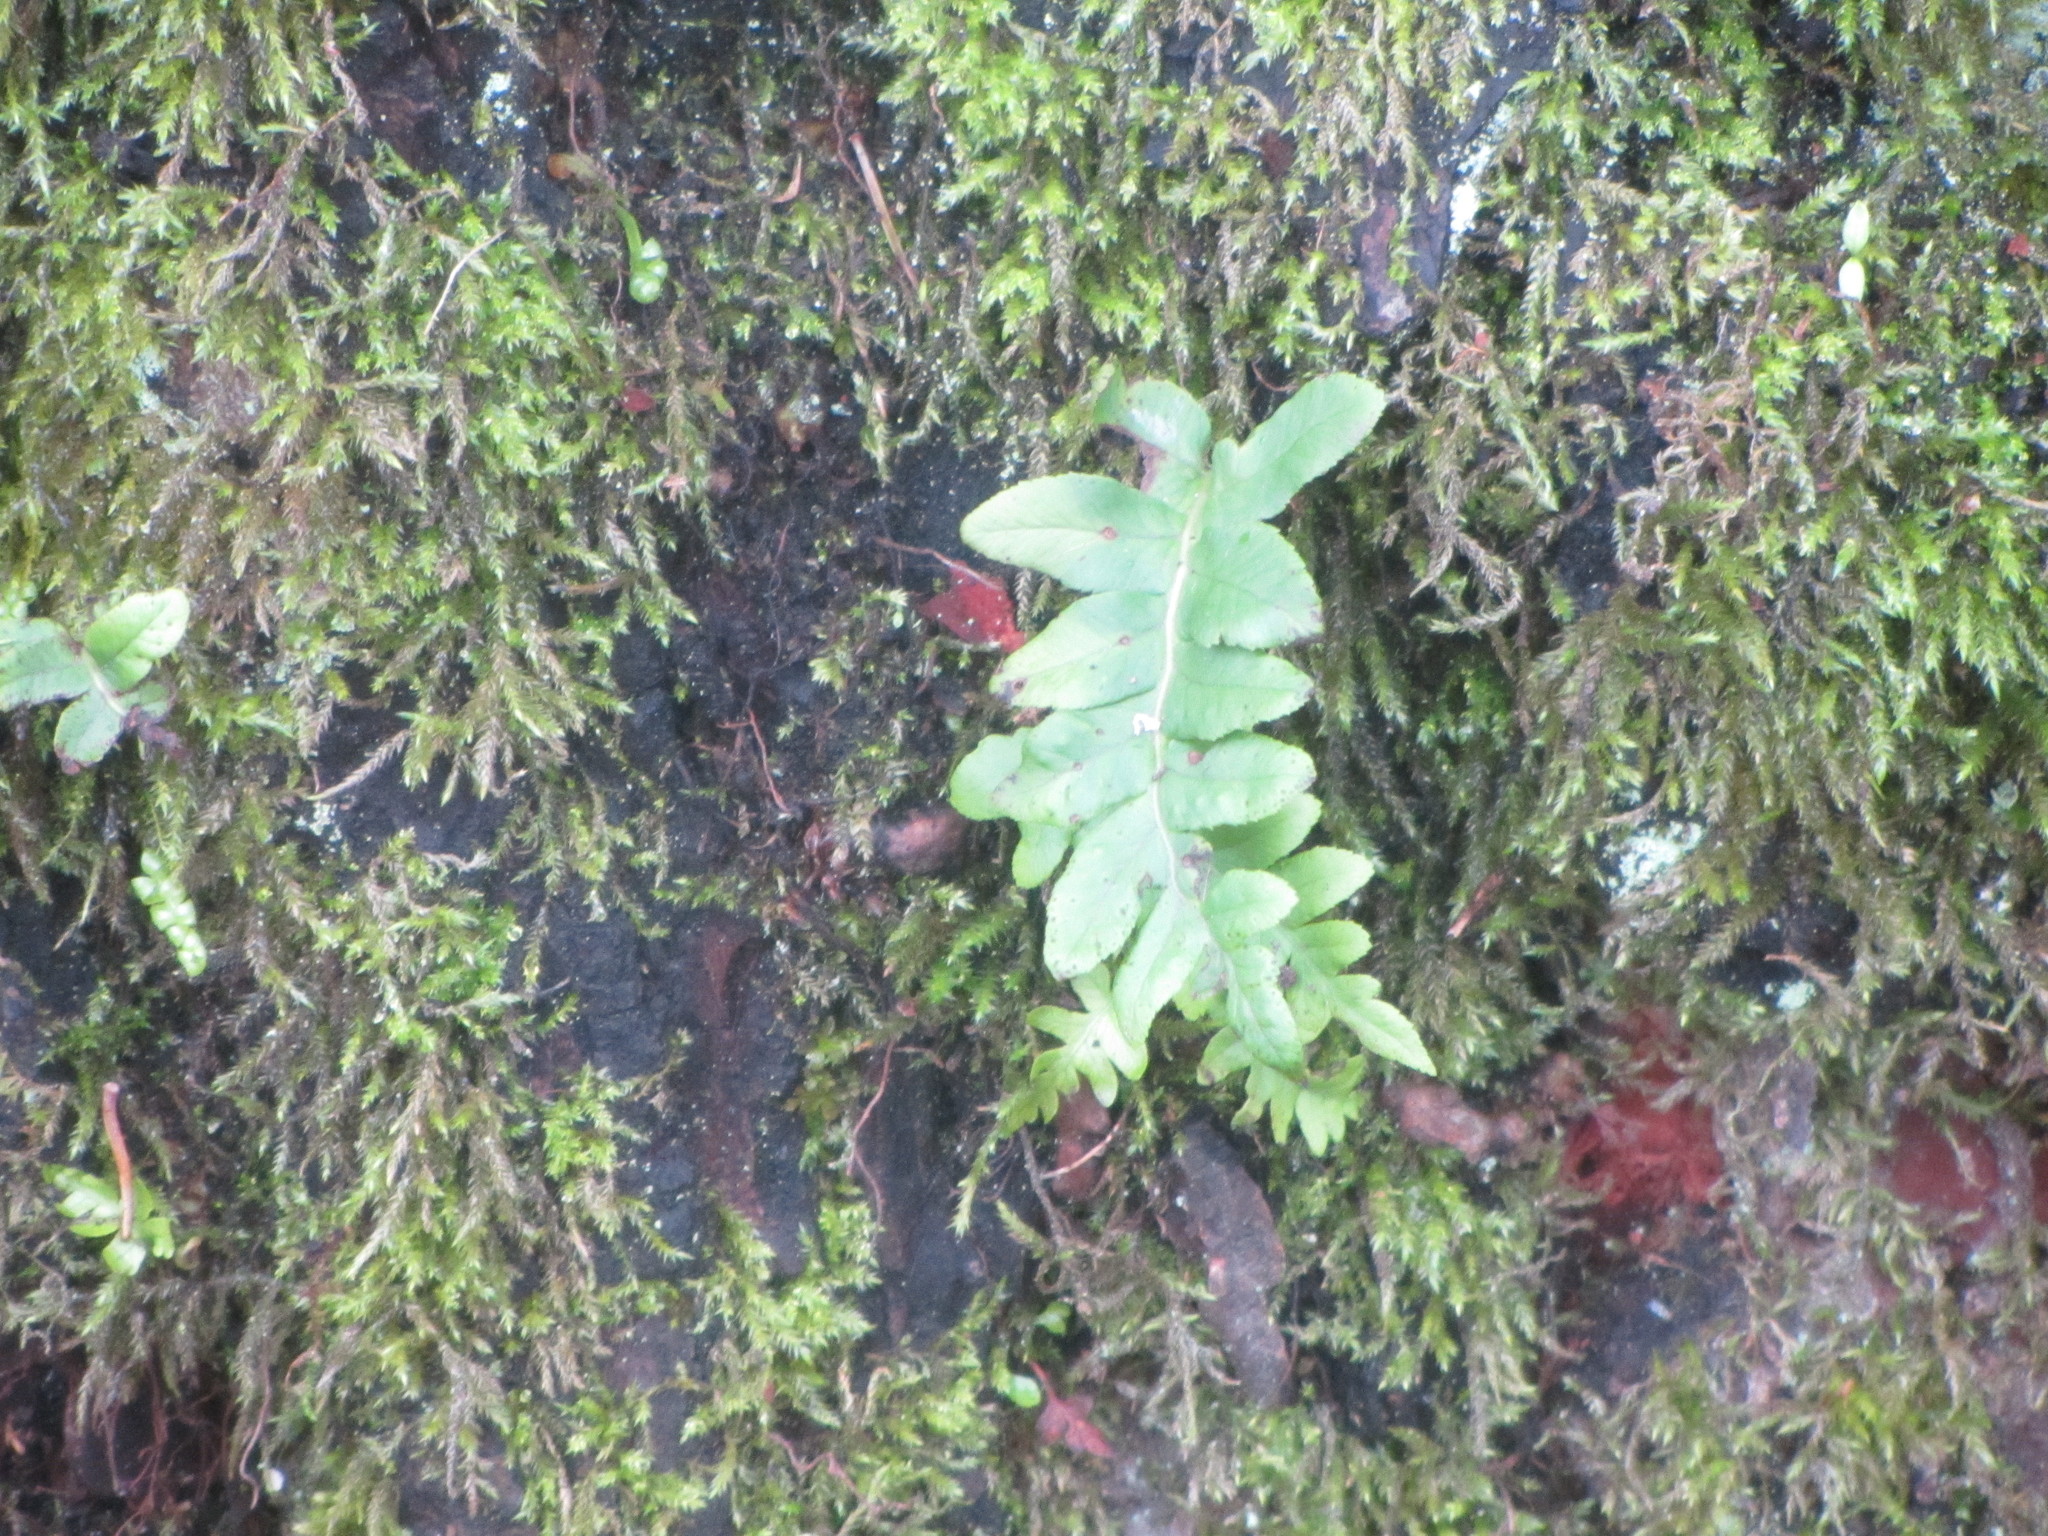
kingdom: Plantae
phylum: Tracheophyta
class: Polypodiopsida
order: Polypodiales
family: Polypodiaceae
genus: Polypodium
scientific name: Polypodium glycyrrhiza
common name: Licorice fern
